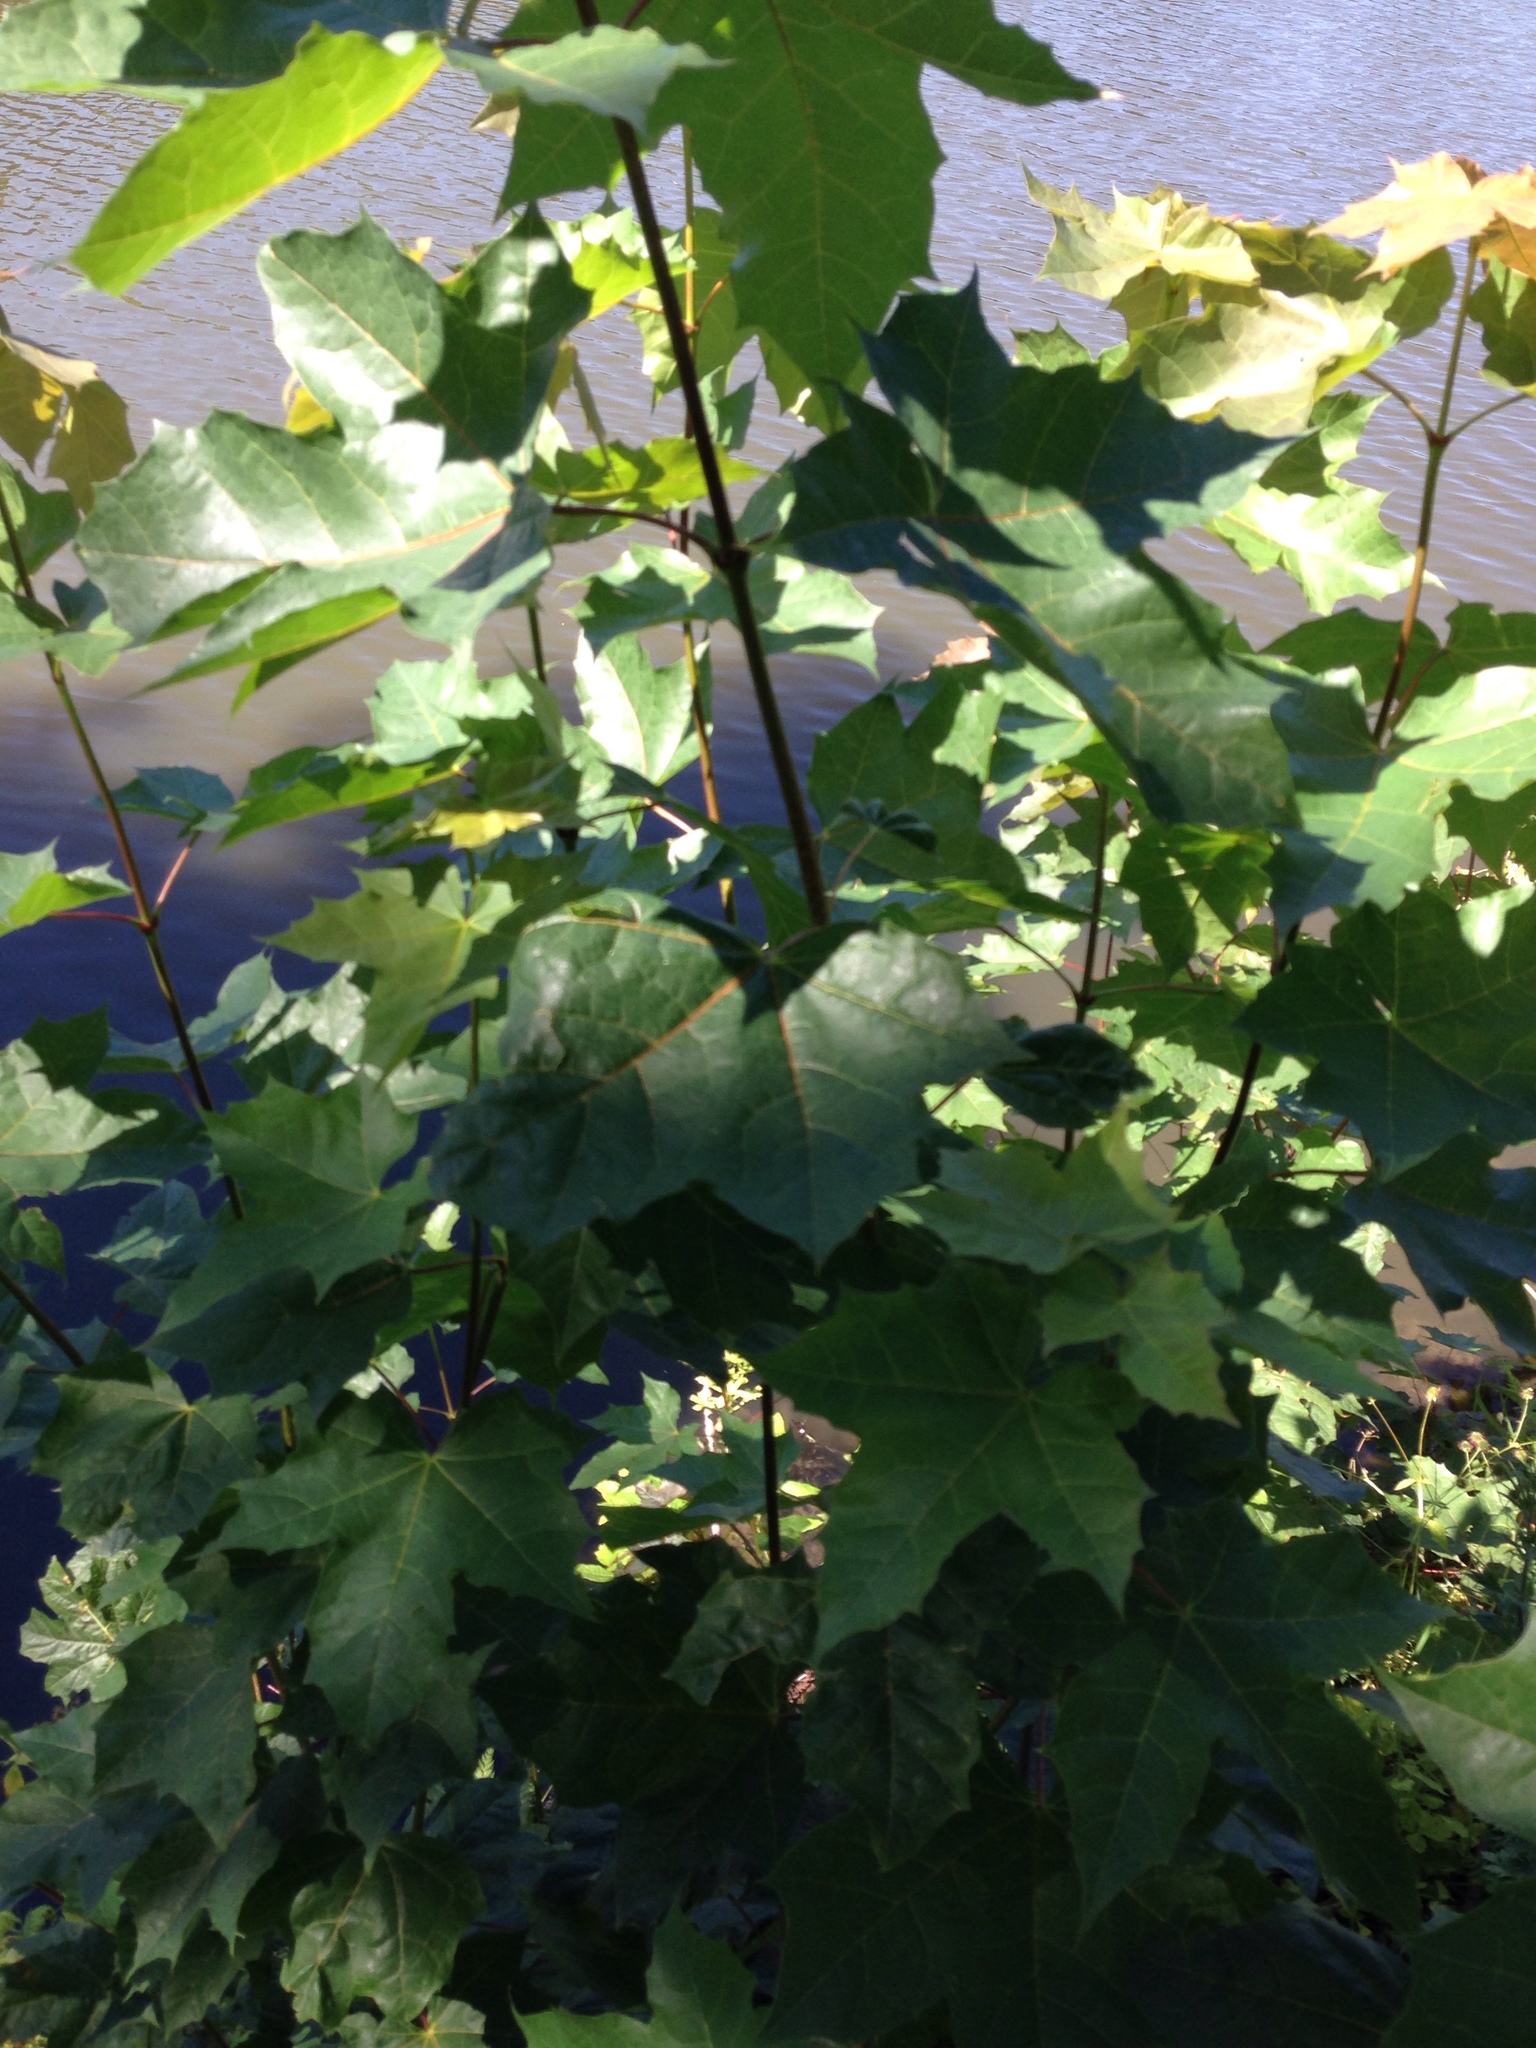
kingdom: Plantae
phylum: Tracheophyta
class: Magnoliopsida
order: Sapindales
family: Sapindaceae
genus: Acer
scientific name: Acer platanoides
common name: Norway maple
